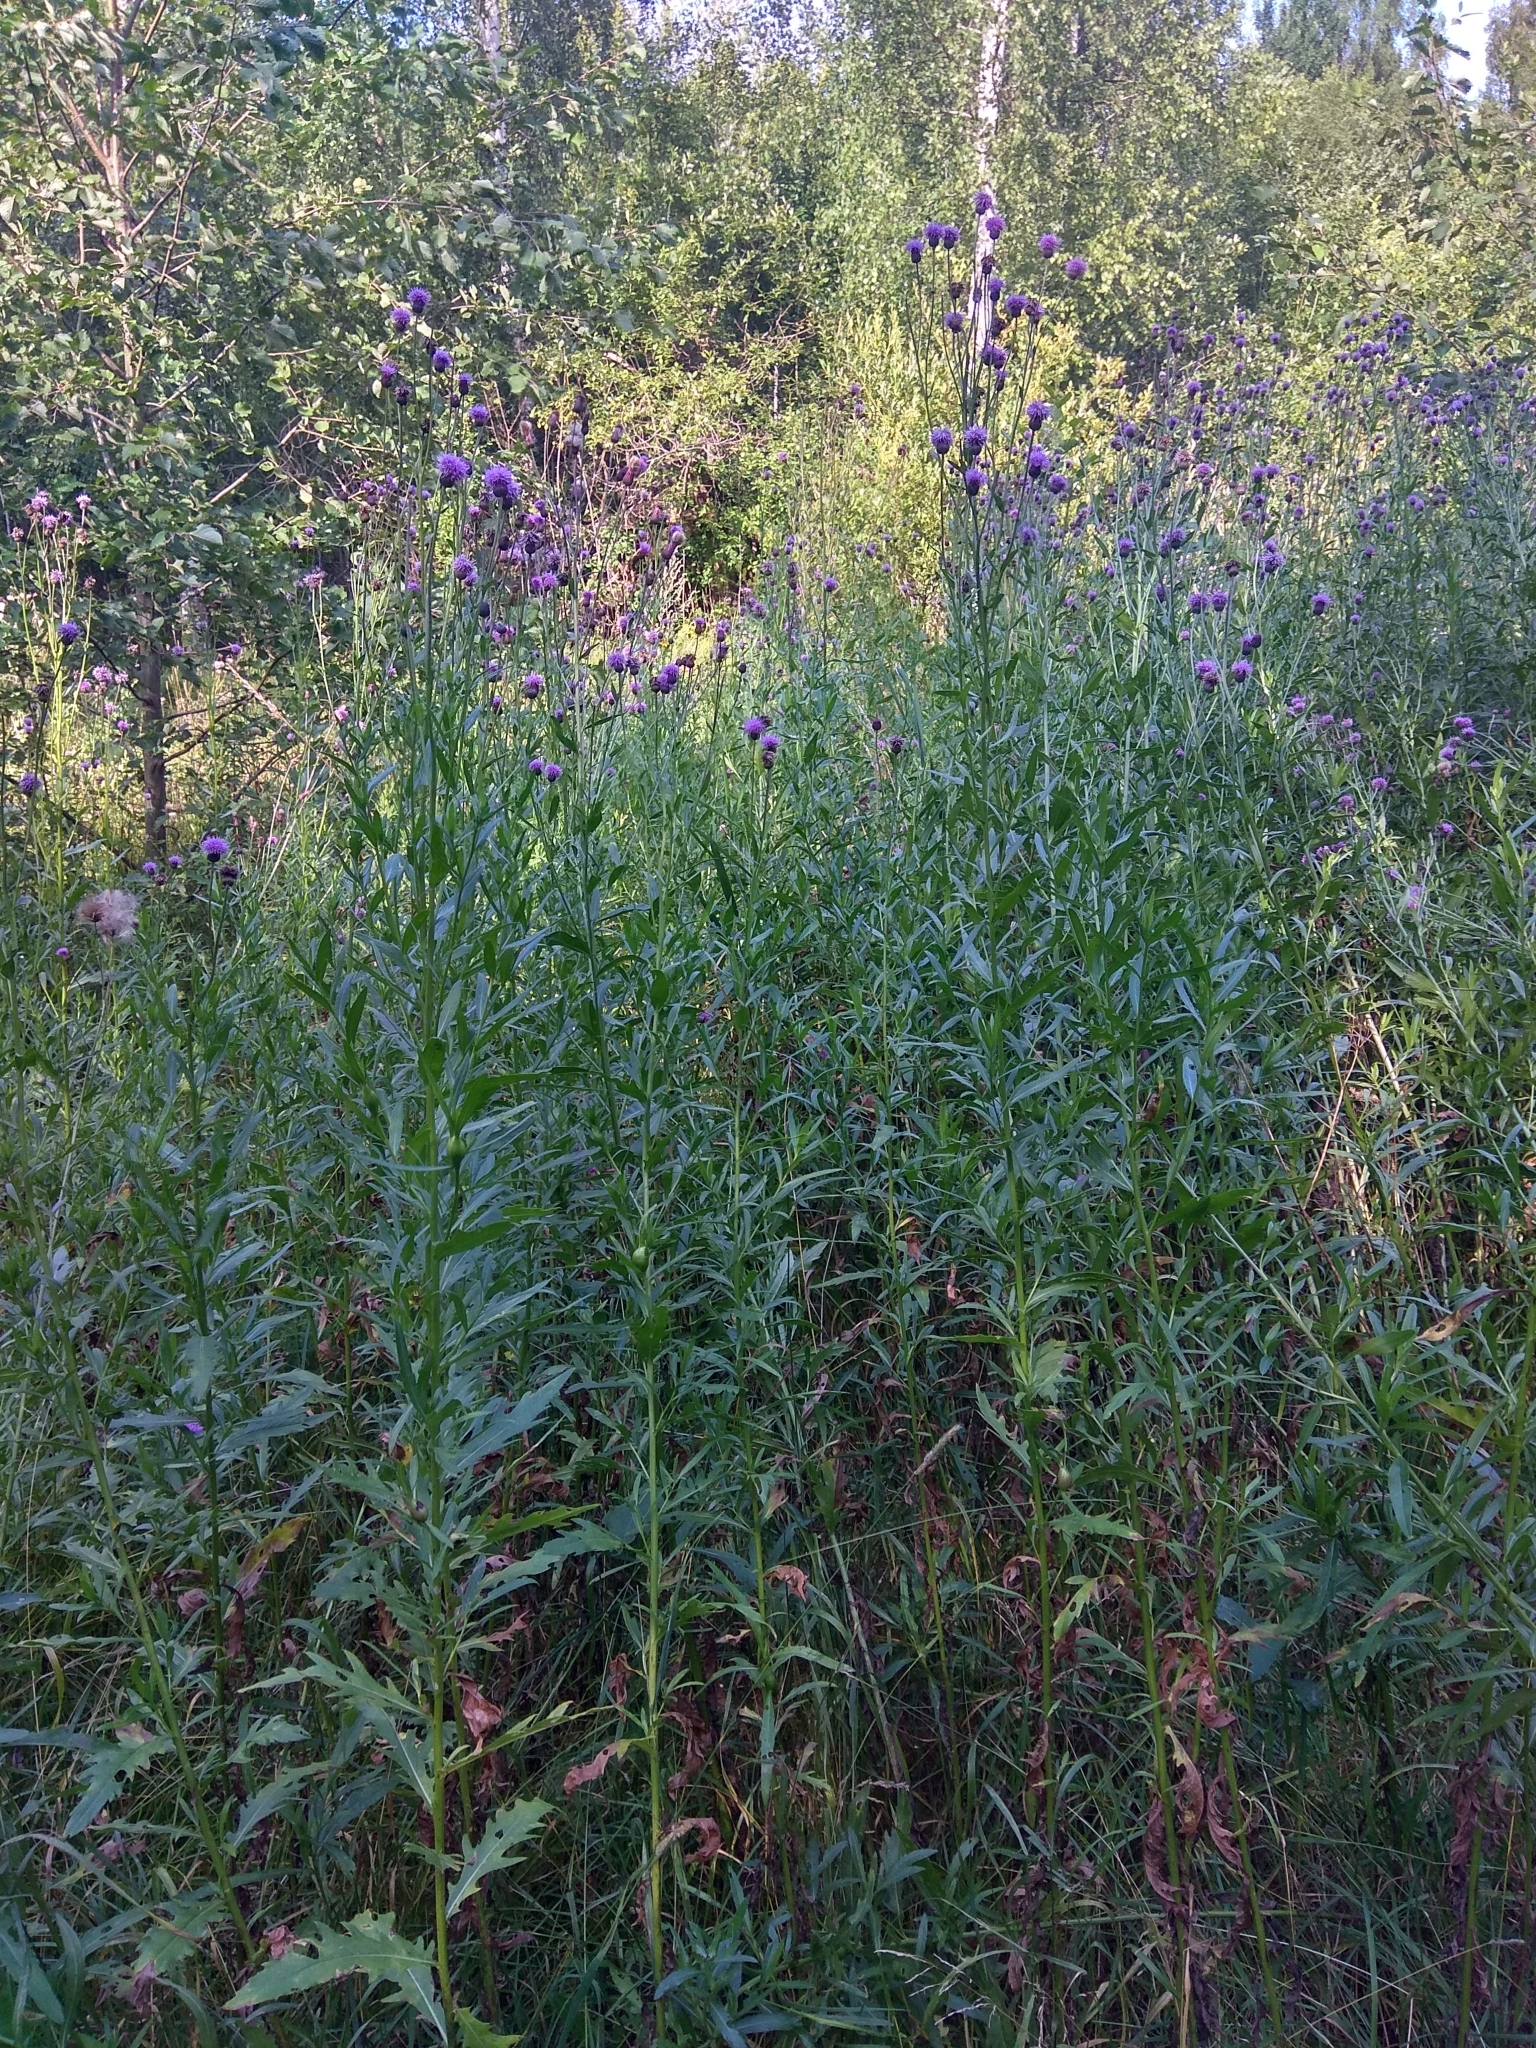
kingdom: Plantae
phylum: Tracheophyta
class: Magnoliopsida
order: Asterales
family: Asteraceae
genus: Cirsium
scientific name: Cirsium arvense
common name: Creeping thistle
